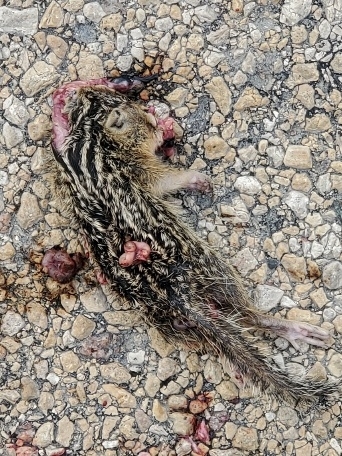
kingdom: Animalia
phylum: Chordata
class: Mammalia
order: Rodentia
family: Sciuridae
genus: Ictidomys
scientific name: Ictidomys tridecemlineatus
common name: Thirteen-lined ground squirrel
